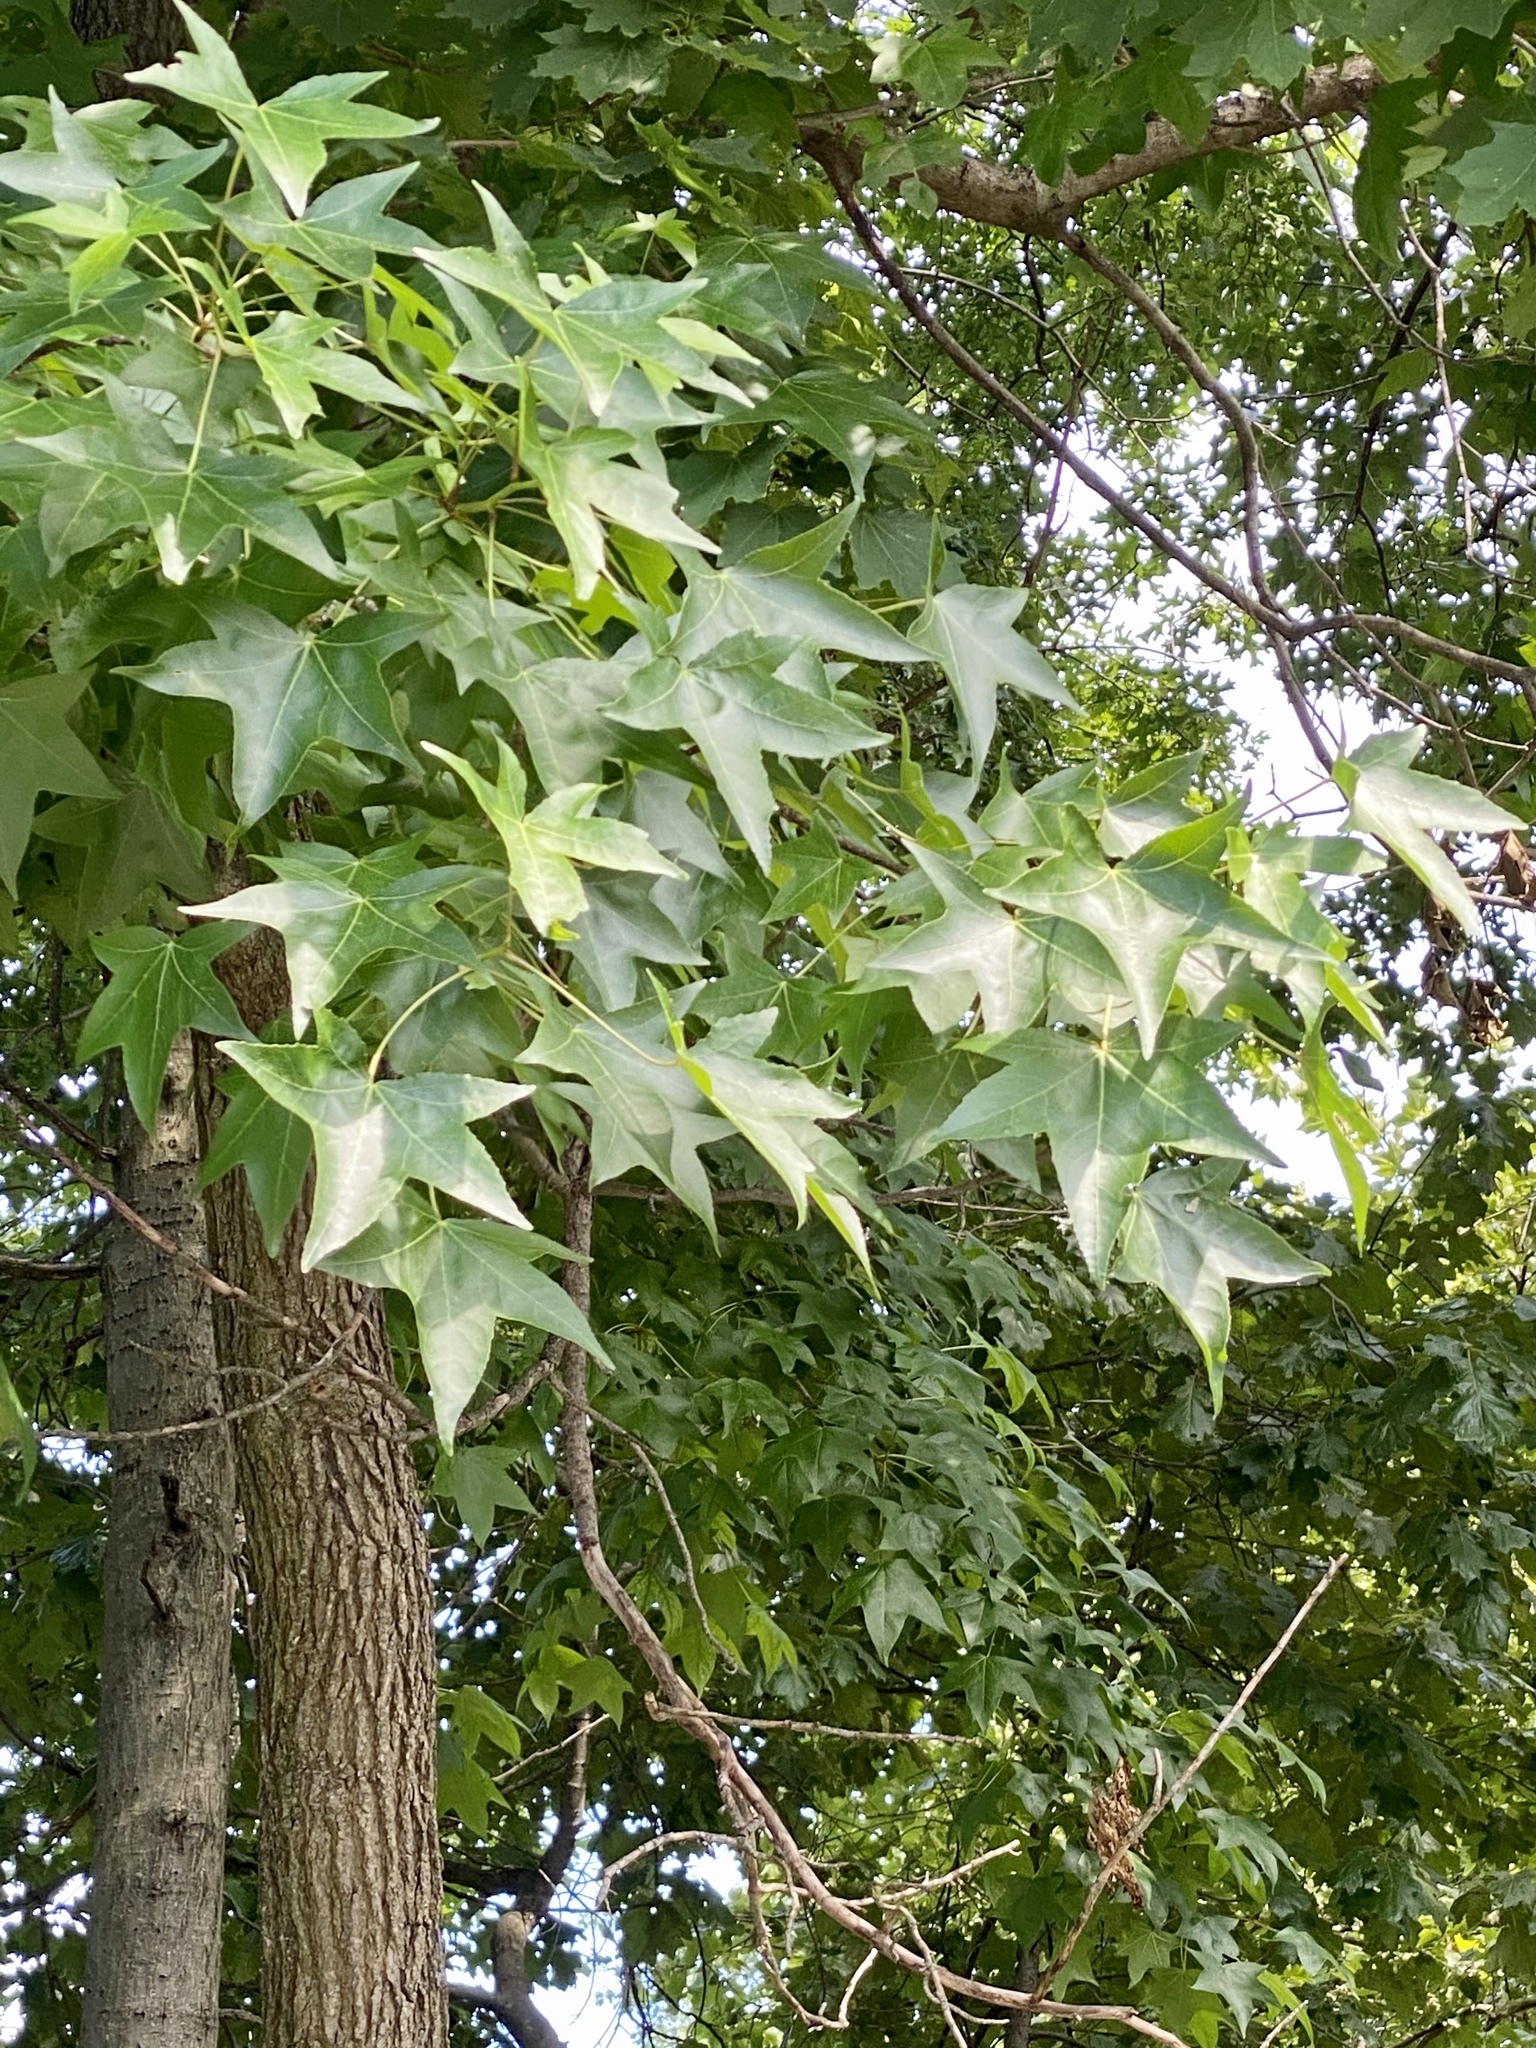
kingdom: Plantae
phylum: Tracheophyta
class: Magnoliopsida
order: Saxifragales
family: Altingiaceae
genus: Liquidambar
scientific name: Liquidambar styraciflua
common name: Sweet gum
